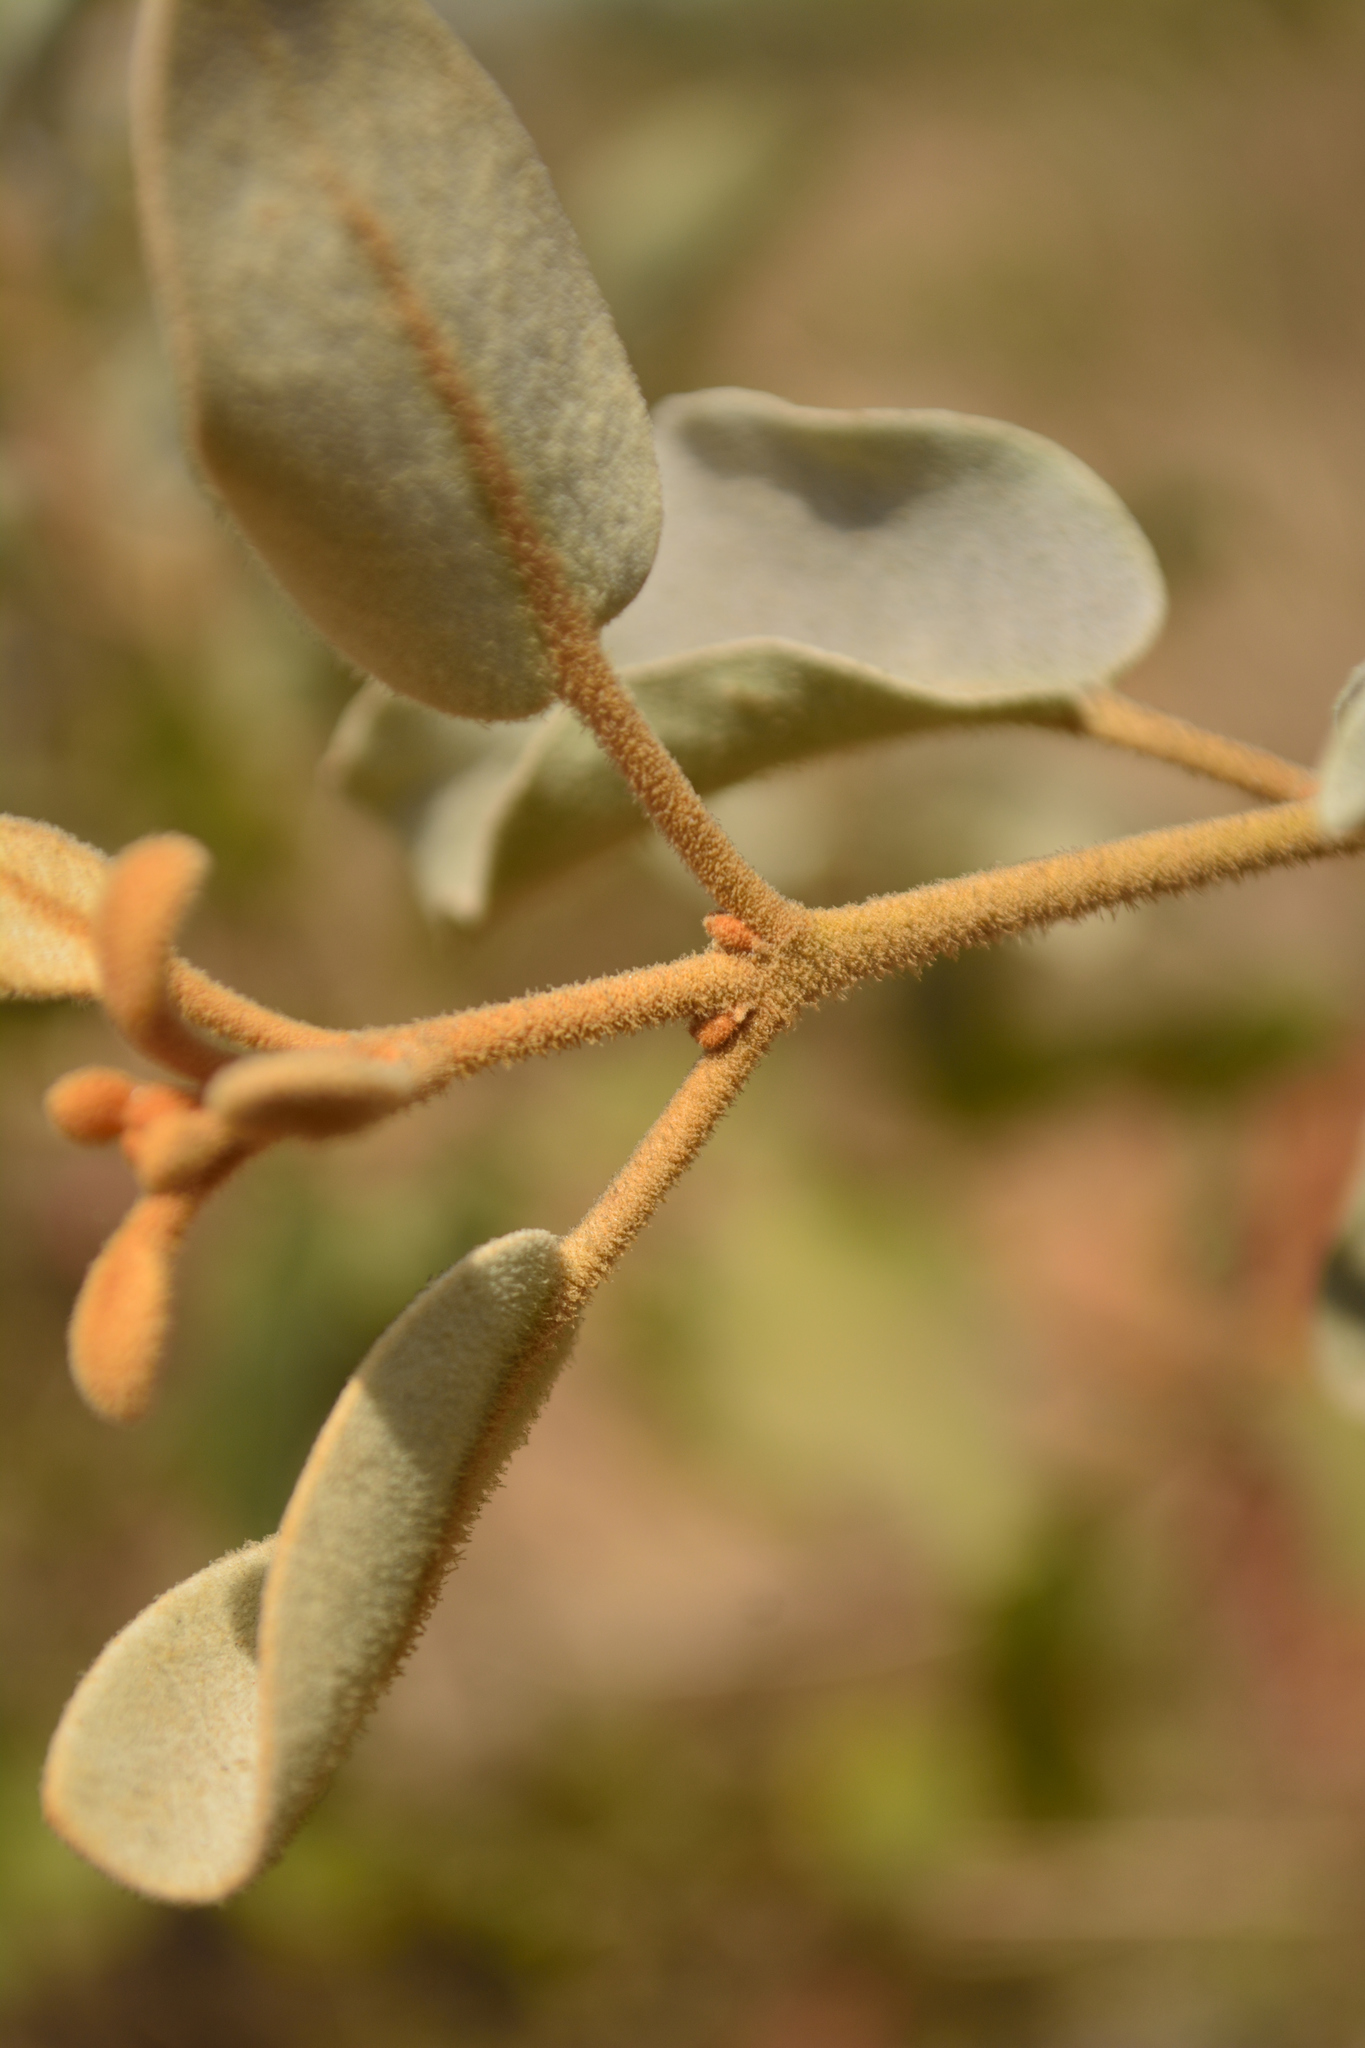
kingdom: Plantae
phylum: Tracheophyta
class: Magnoliopsida
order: Santalales
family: Loranthaceae
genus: Scurrula
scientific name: Scurrula parasitica
